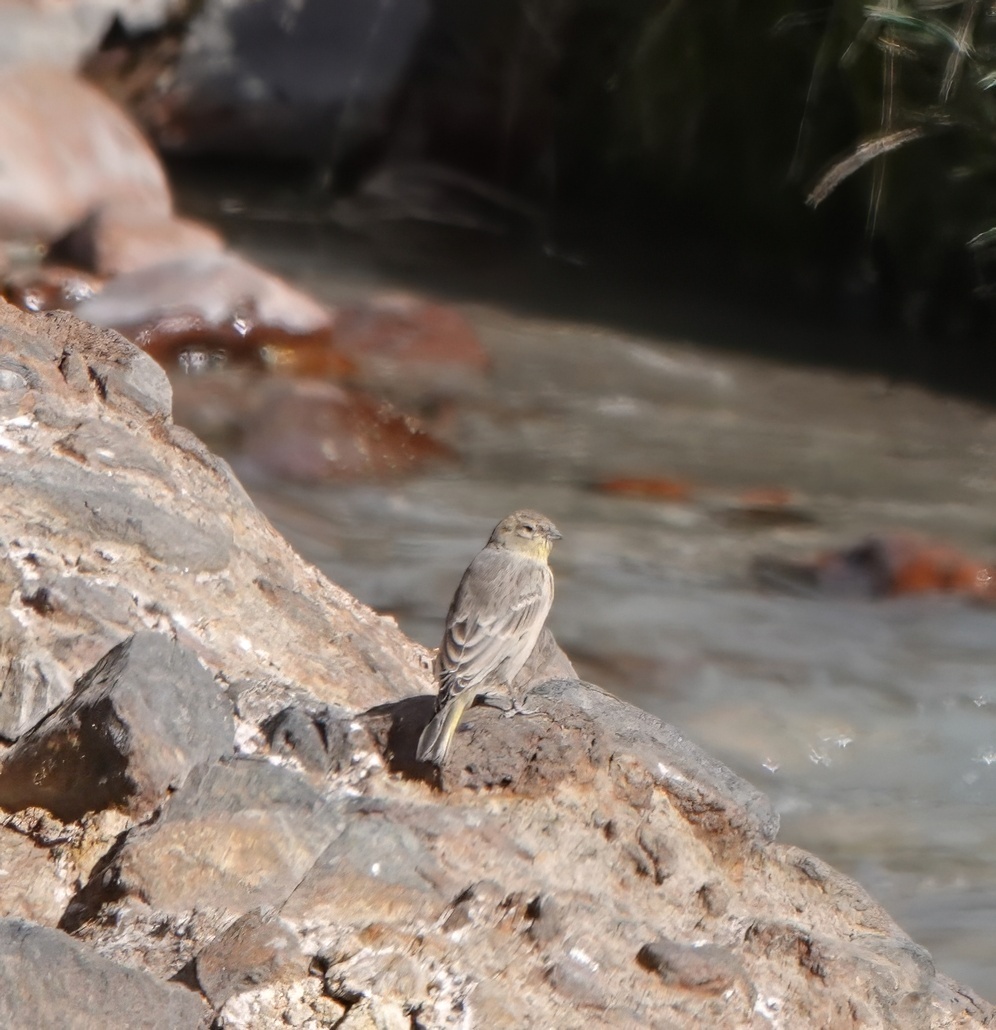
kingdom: Animalia
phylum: Chordata
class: Aves
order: Passeriformes
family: Thraupidae
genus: Sicalis
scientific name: Sicalis auriventris
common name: Greater yellow finch
